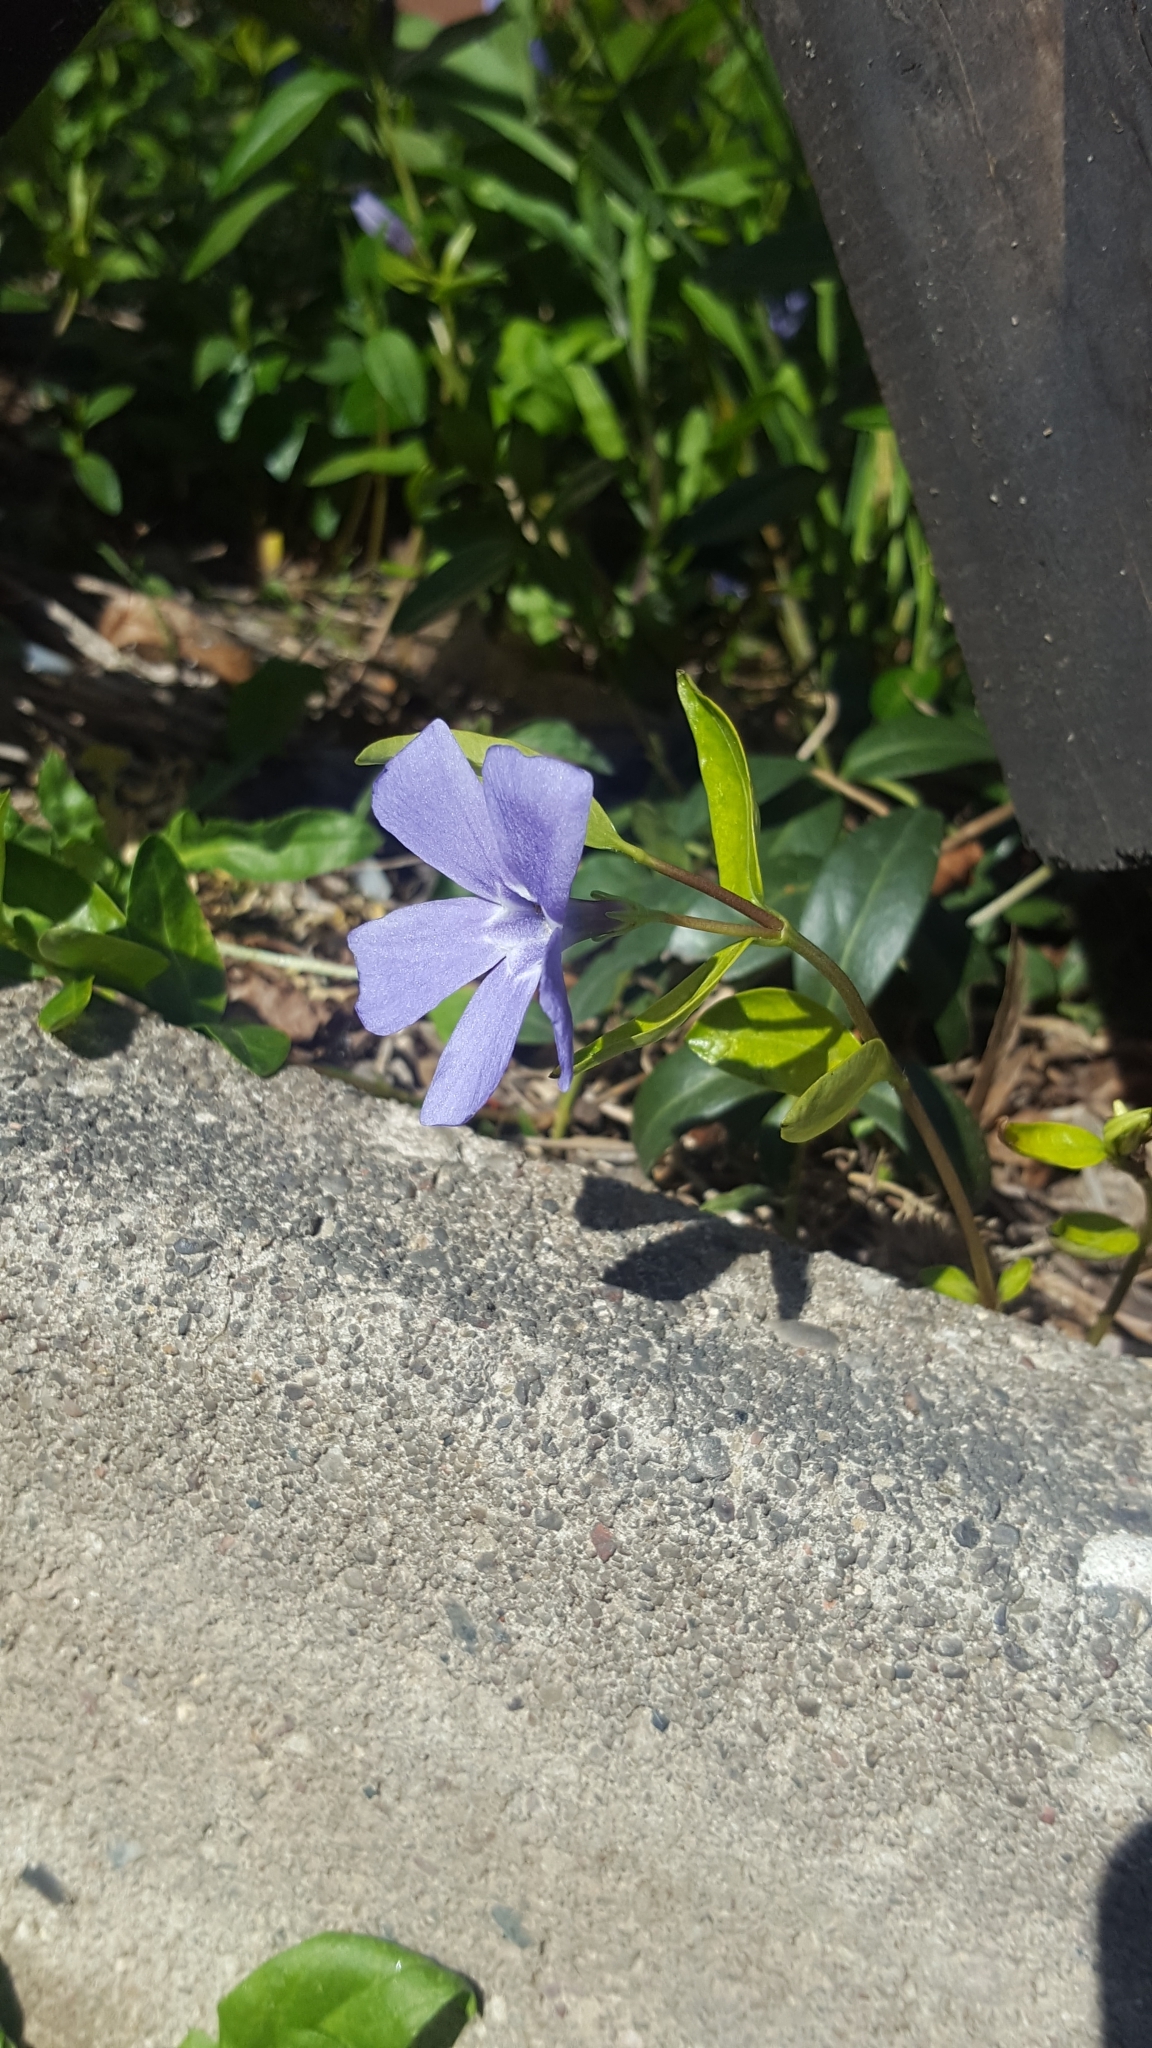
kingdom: Plantae
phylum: Tracheophyta
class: Magnoliopsida
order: Gentianales
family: Apocynaceae
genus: Vinca
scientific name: Vinca minor
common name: Lesser periwinkle
